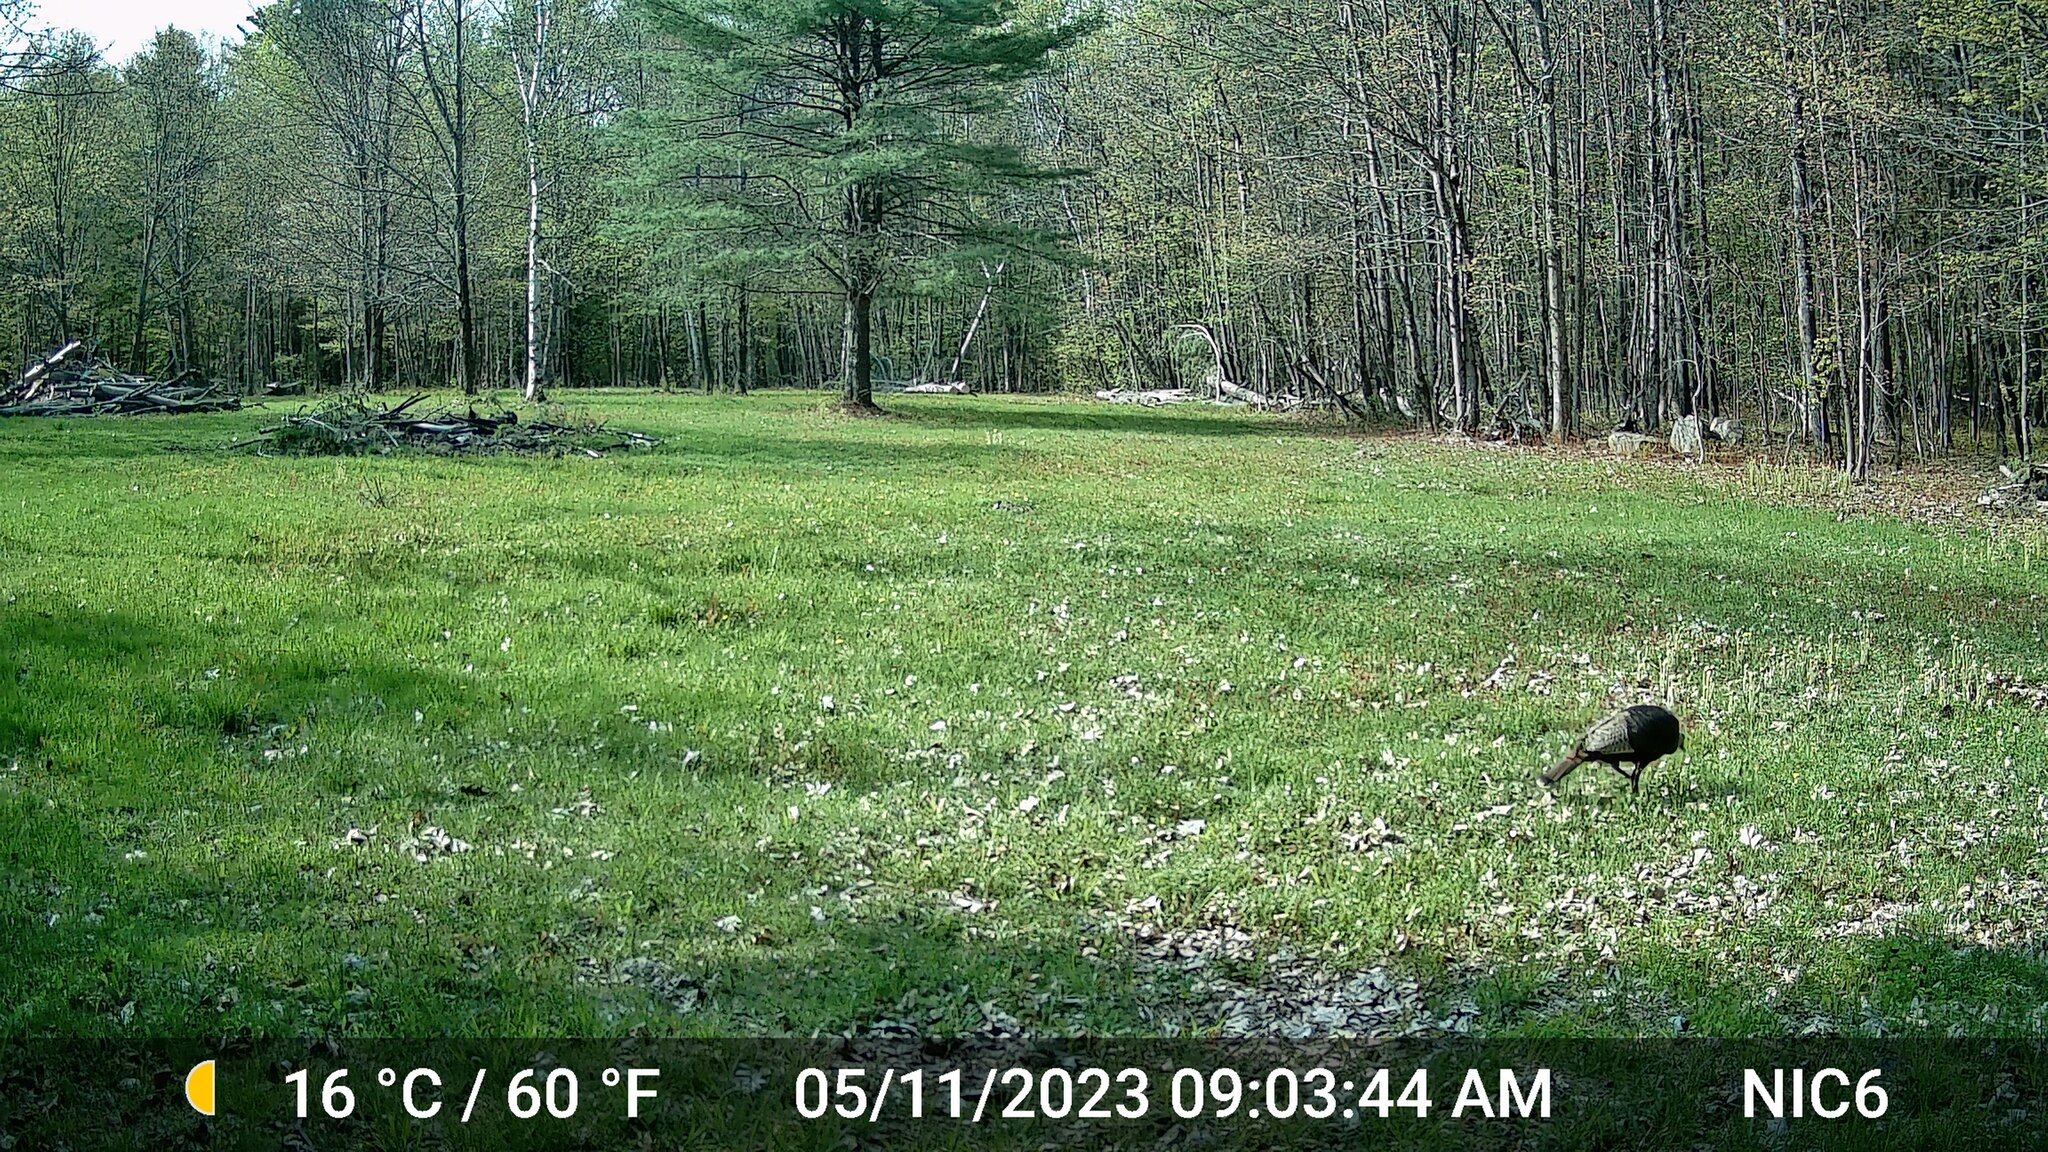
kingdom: Animalia
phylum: Chordata
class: Aves
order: Galliformes
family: Phasianidae
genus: Meleagris
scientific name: Meleagris gallopavo
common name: Wild turkey
